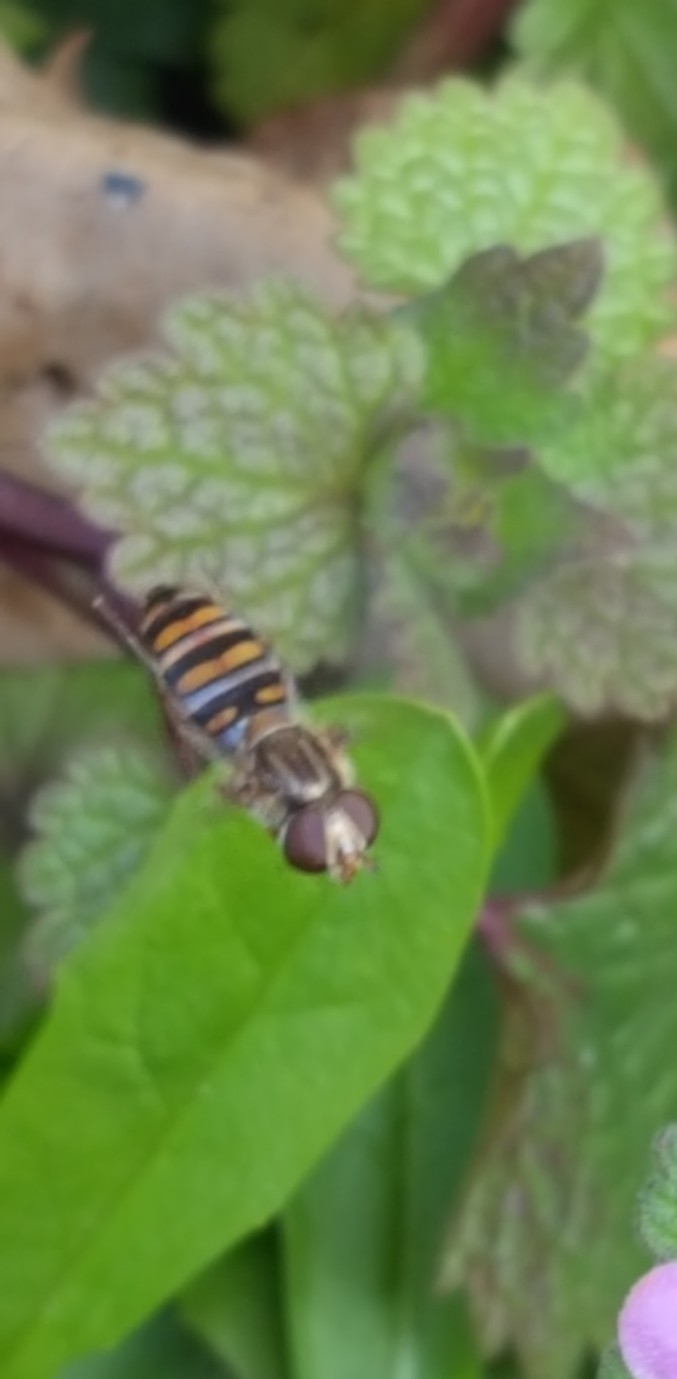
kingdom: Animalia
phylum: Arthropoda
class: Insecta
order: Diptera
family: Syrphidae
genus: Episyrphus
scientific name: Episyrphus balteatus
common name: Marmalade hoverfly
